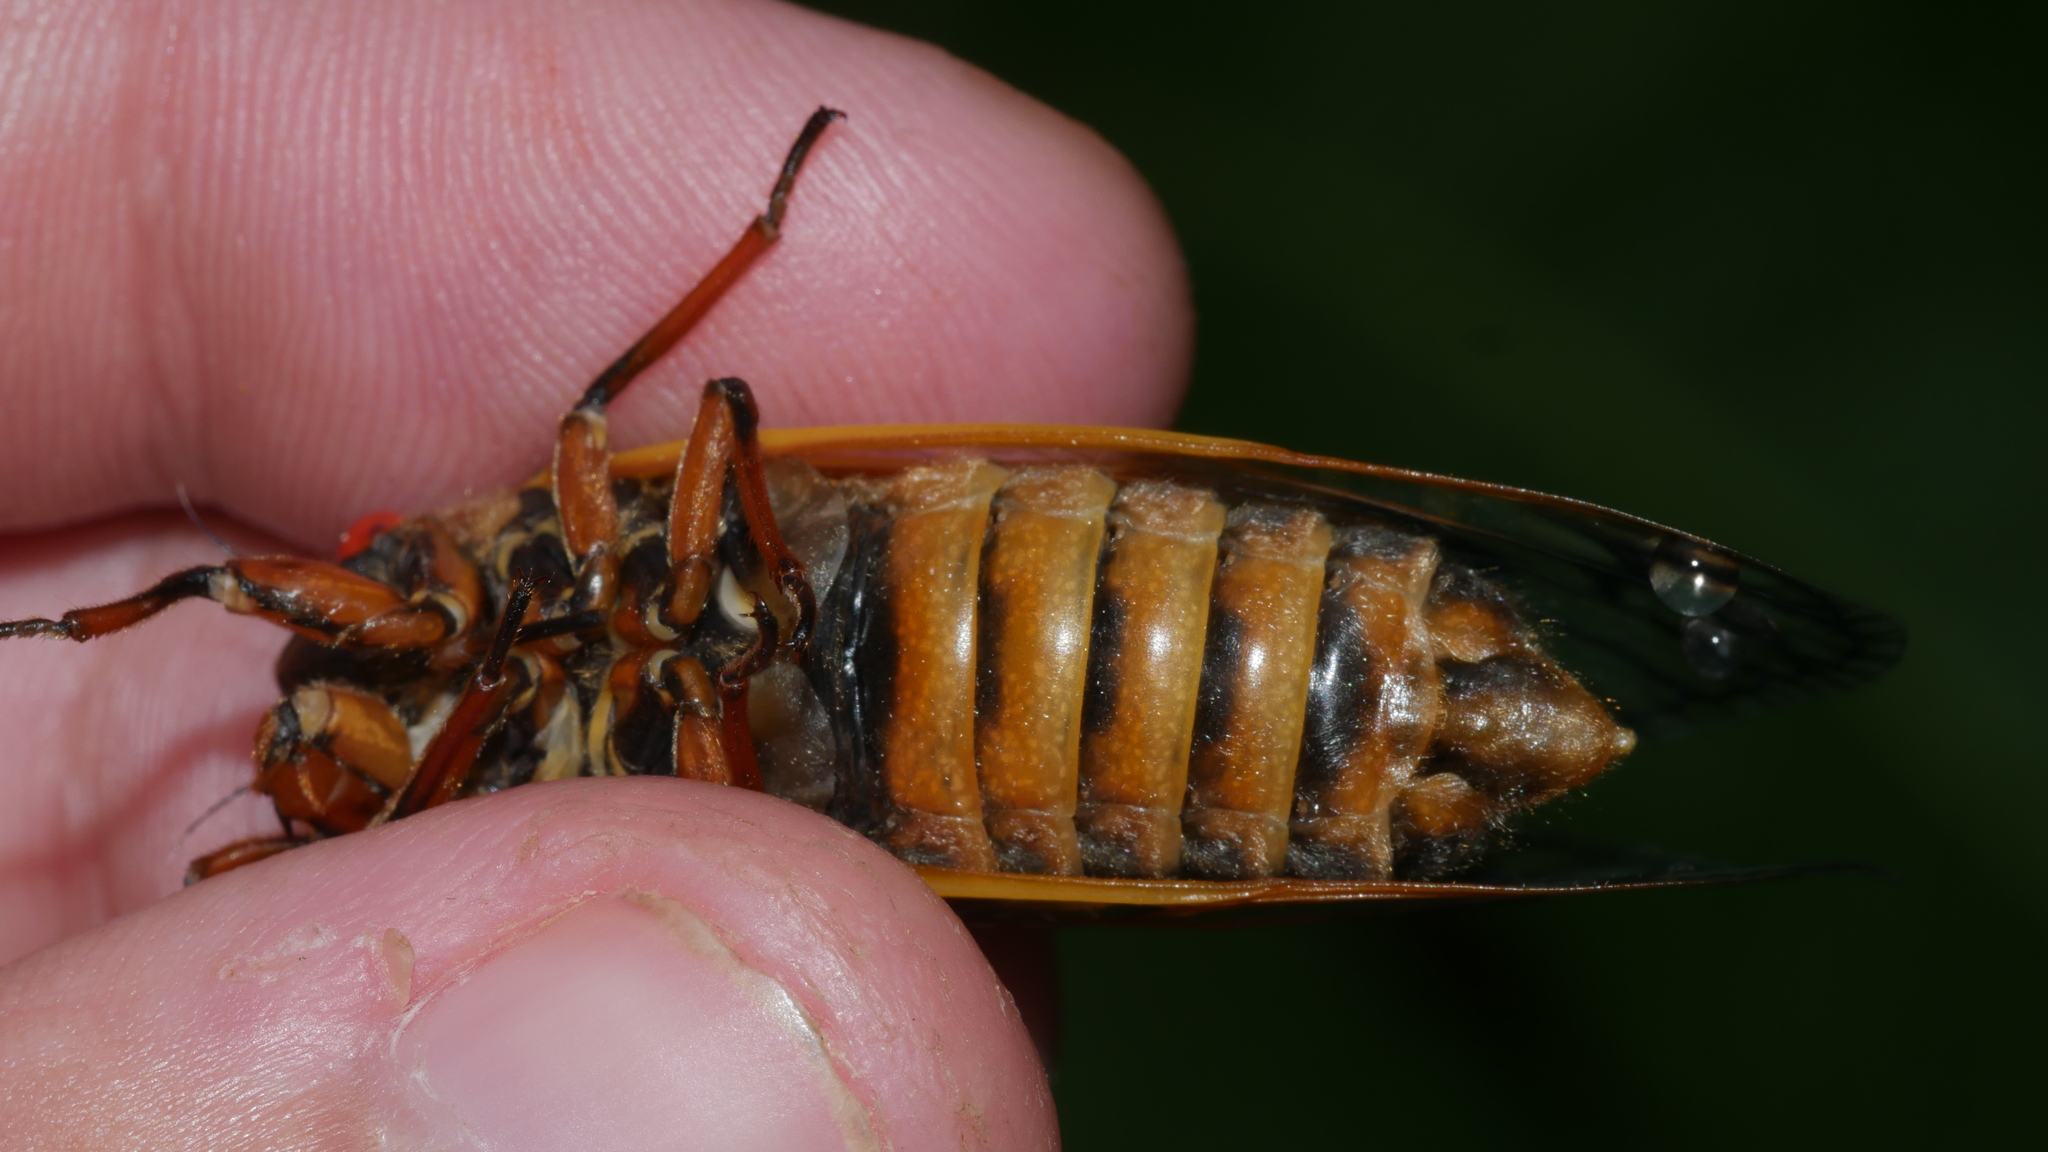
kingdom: Animalia
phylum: Arthropoda
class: Insecta
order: Hemiptera
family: Cicadidae
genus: Magicicada
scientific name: Magicicada septendecim
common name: Periodical cicada
